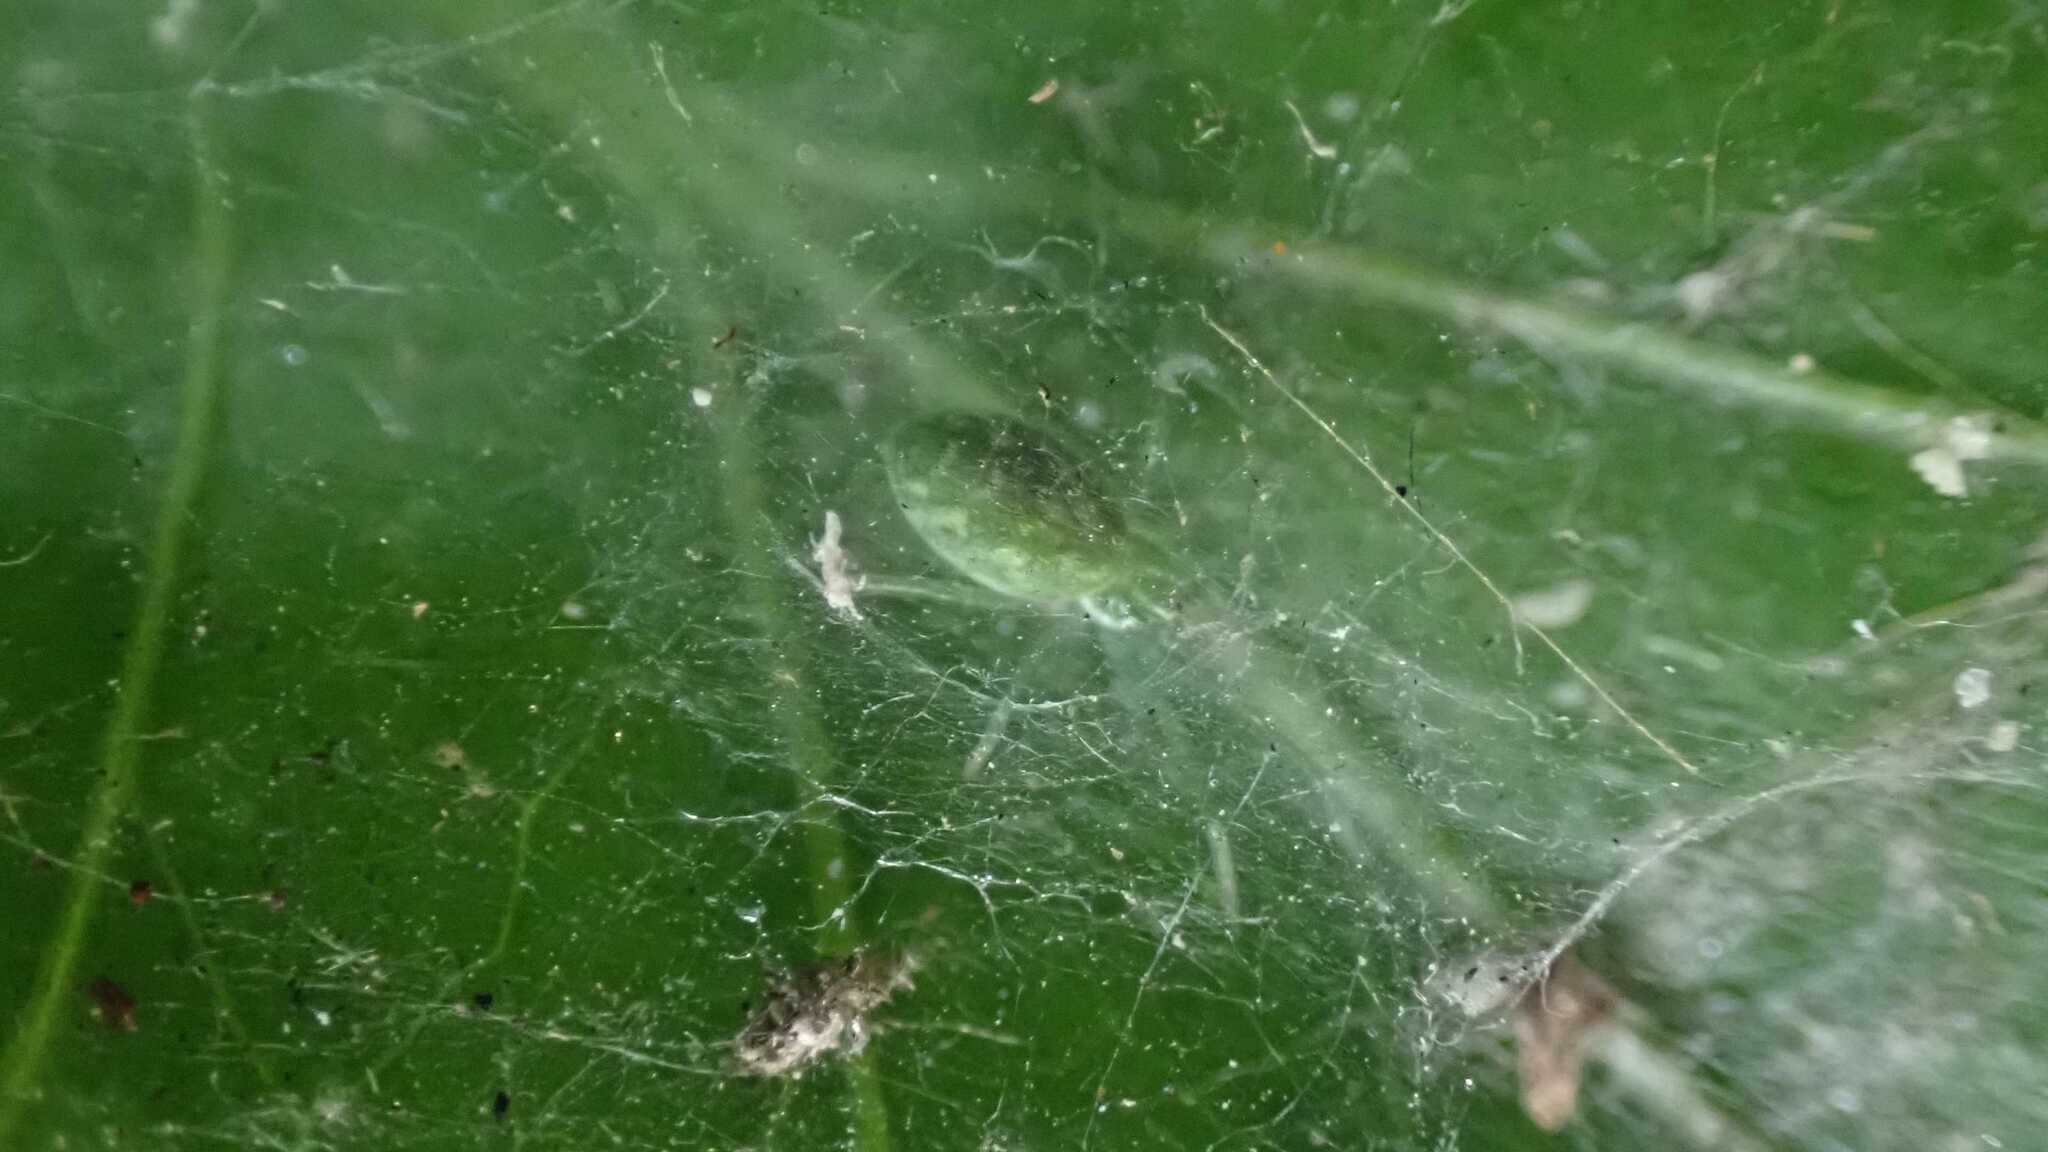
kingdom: Animalia
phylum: Arthropoda
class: Arachnida
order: Araneae
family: Dictynidae
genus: Nigma
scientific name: Nigma walckenaeri
